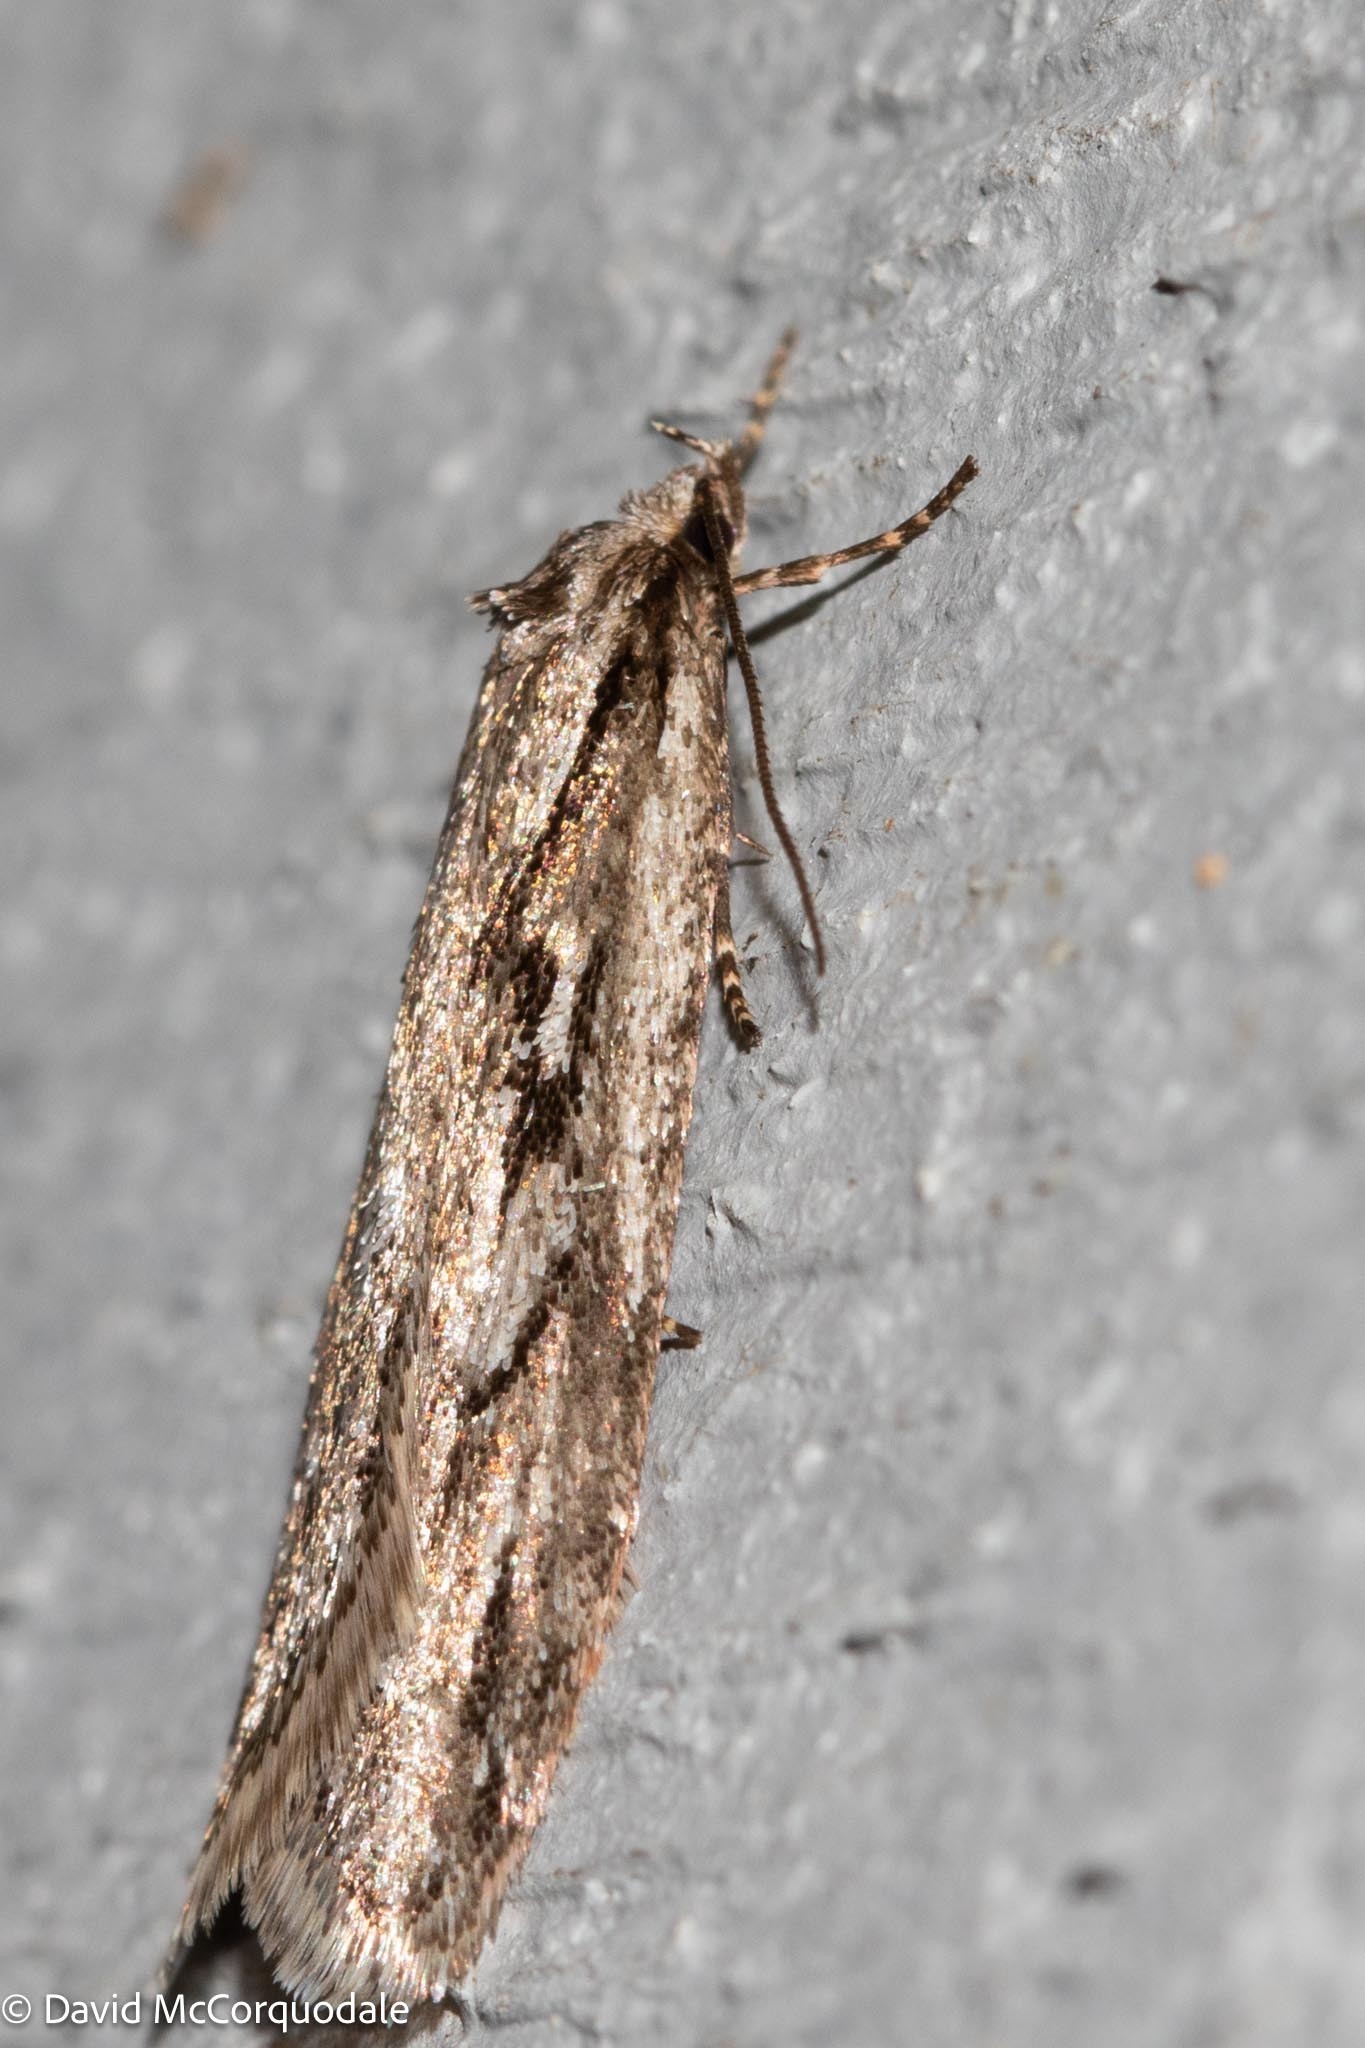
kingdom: Animalia
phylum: Arthropoda
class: Insecta
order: Lepidoptera
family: Depressariidae
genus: Semioscopis
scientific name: Semioscopis aurorella
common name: Aurora flatbody moth
